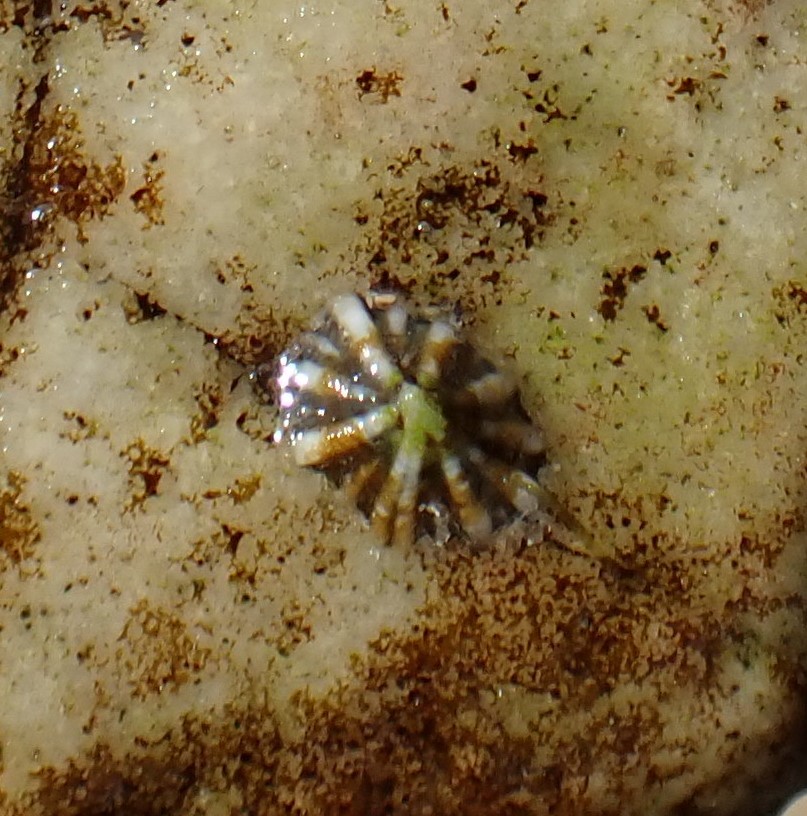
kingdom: Animalia
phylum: Mollusca
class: Gastropoda
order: Siphonariida
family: Siphonariidae
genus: Siphonaria
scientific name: Siphonaria diemenensis
